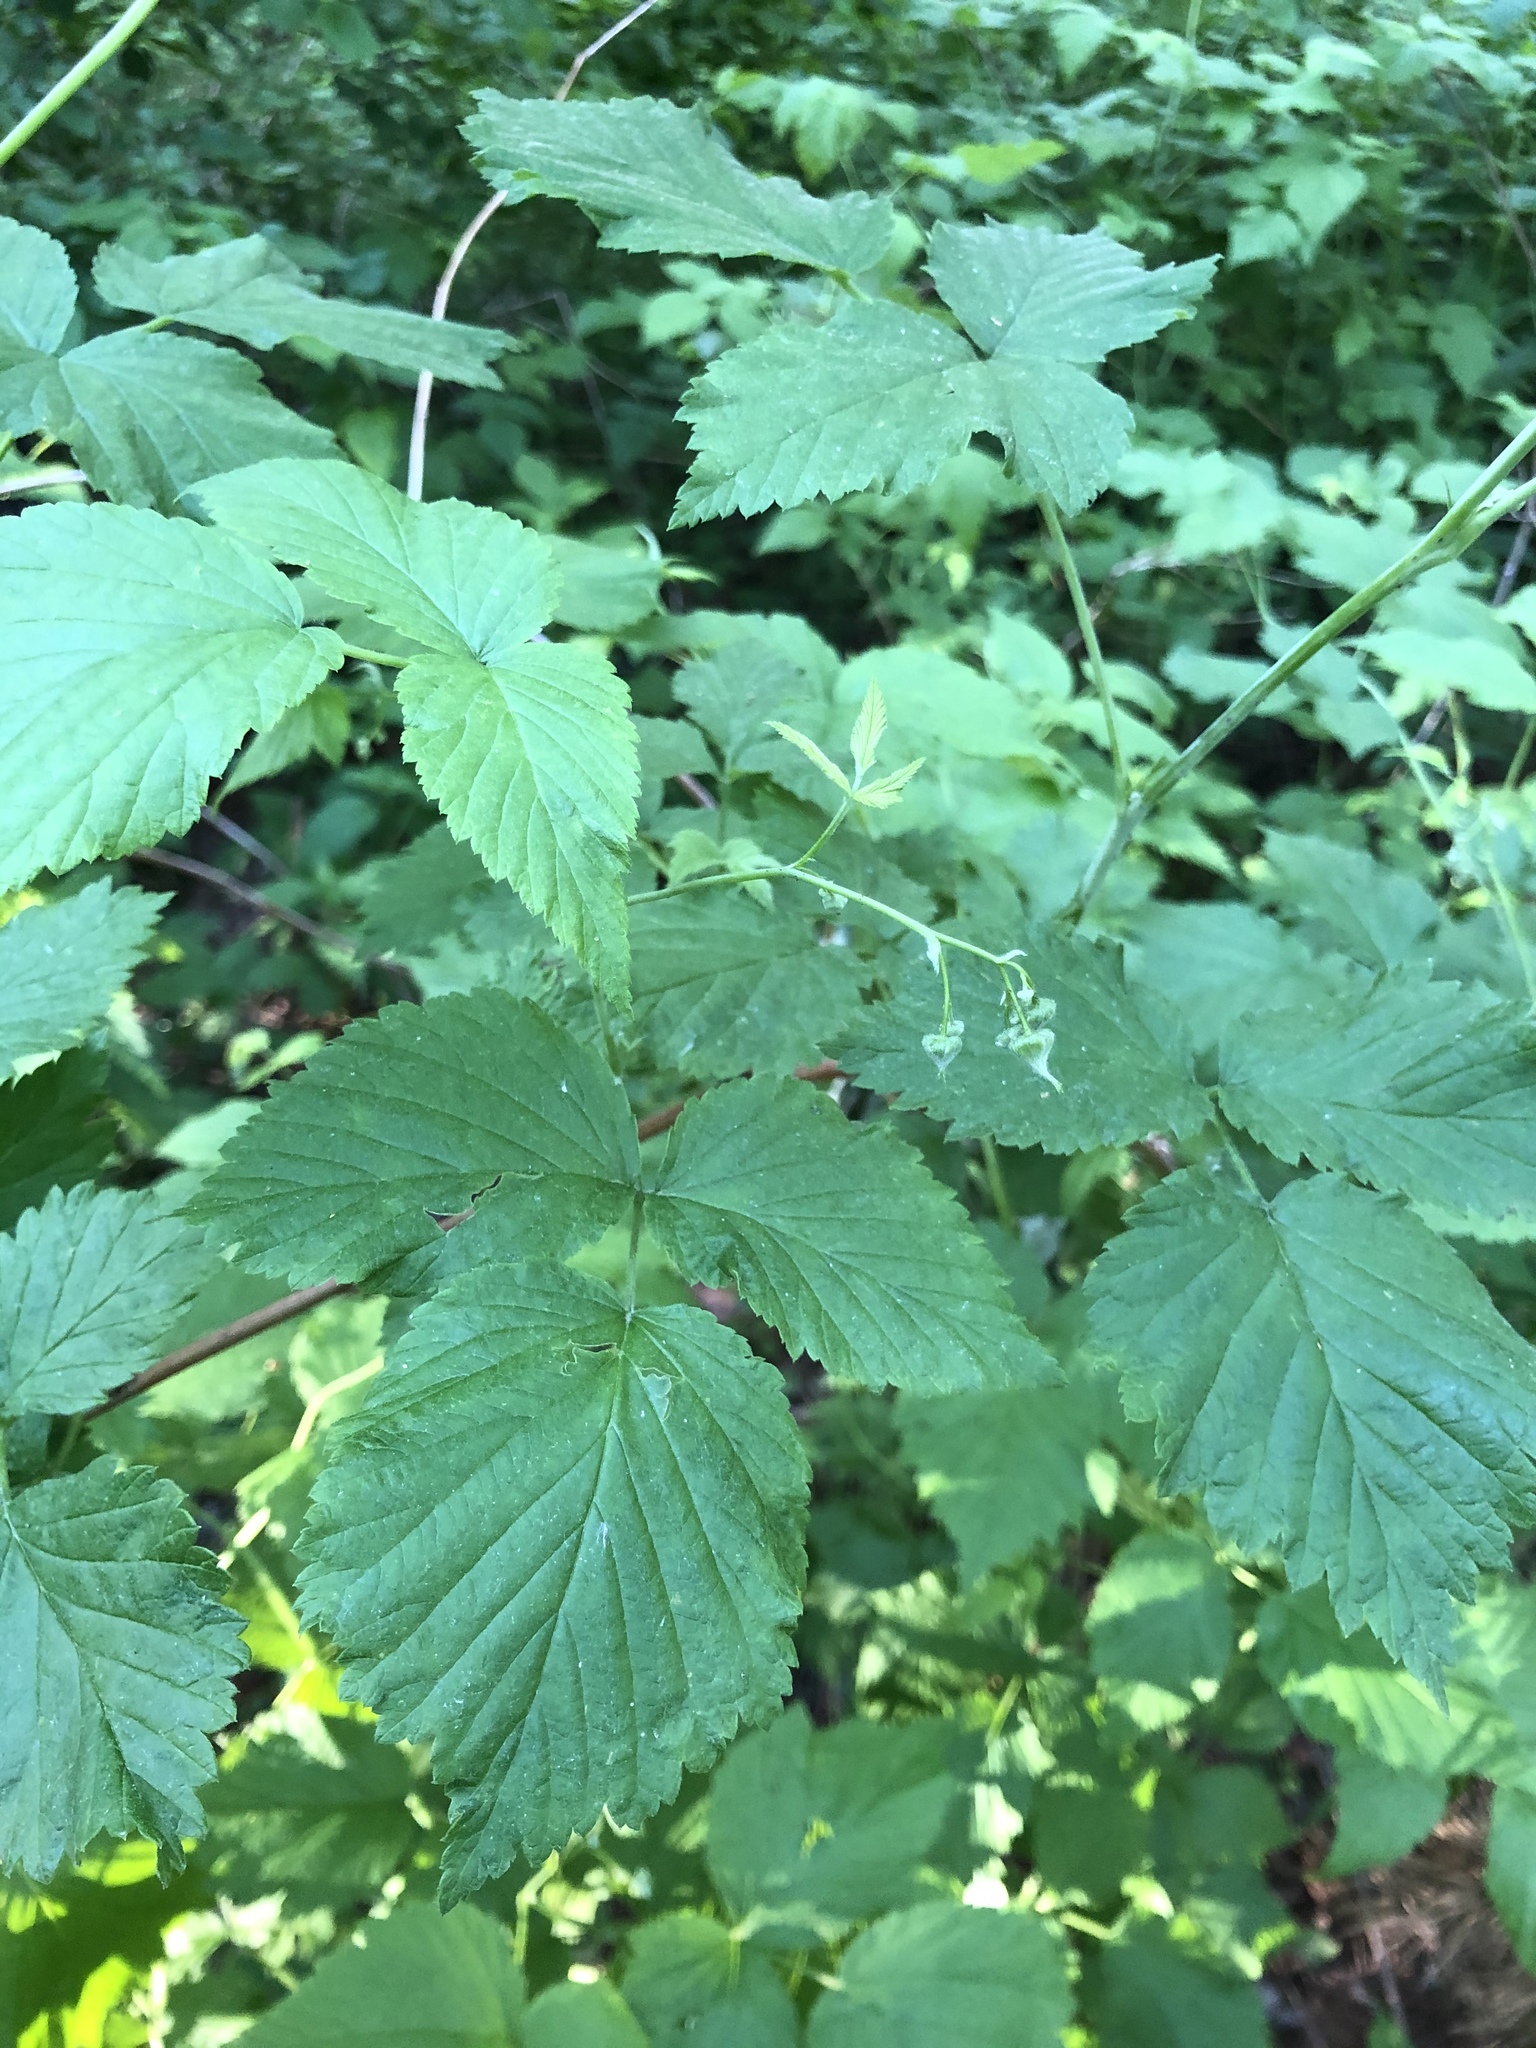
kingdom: Plantae
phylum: Tracheophyta
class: Magnoliopsida
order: Rosales
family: Rosaceae
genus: Rubus
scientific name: Rubus idaeus
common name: Raspberry
